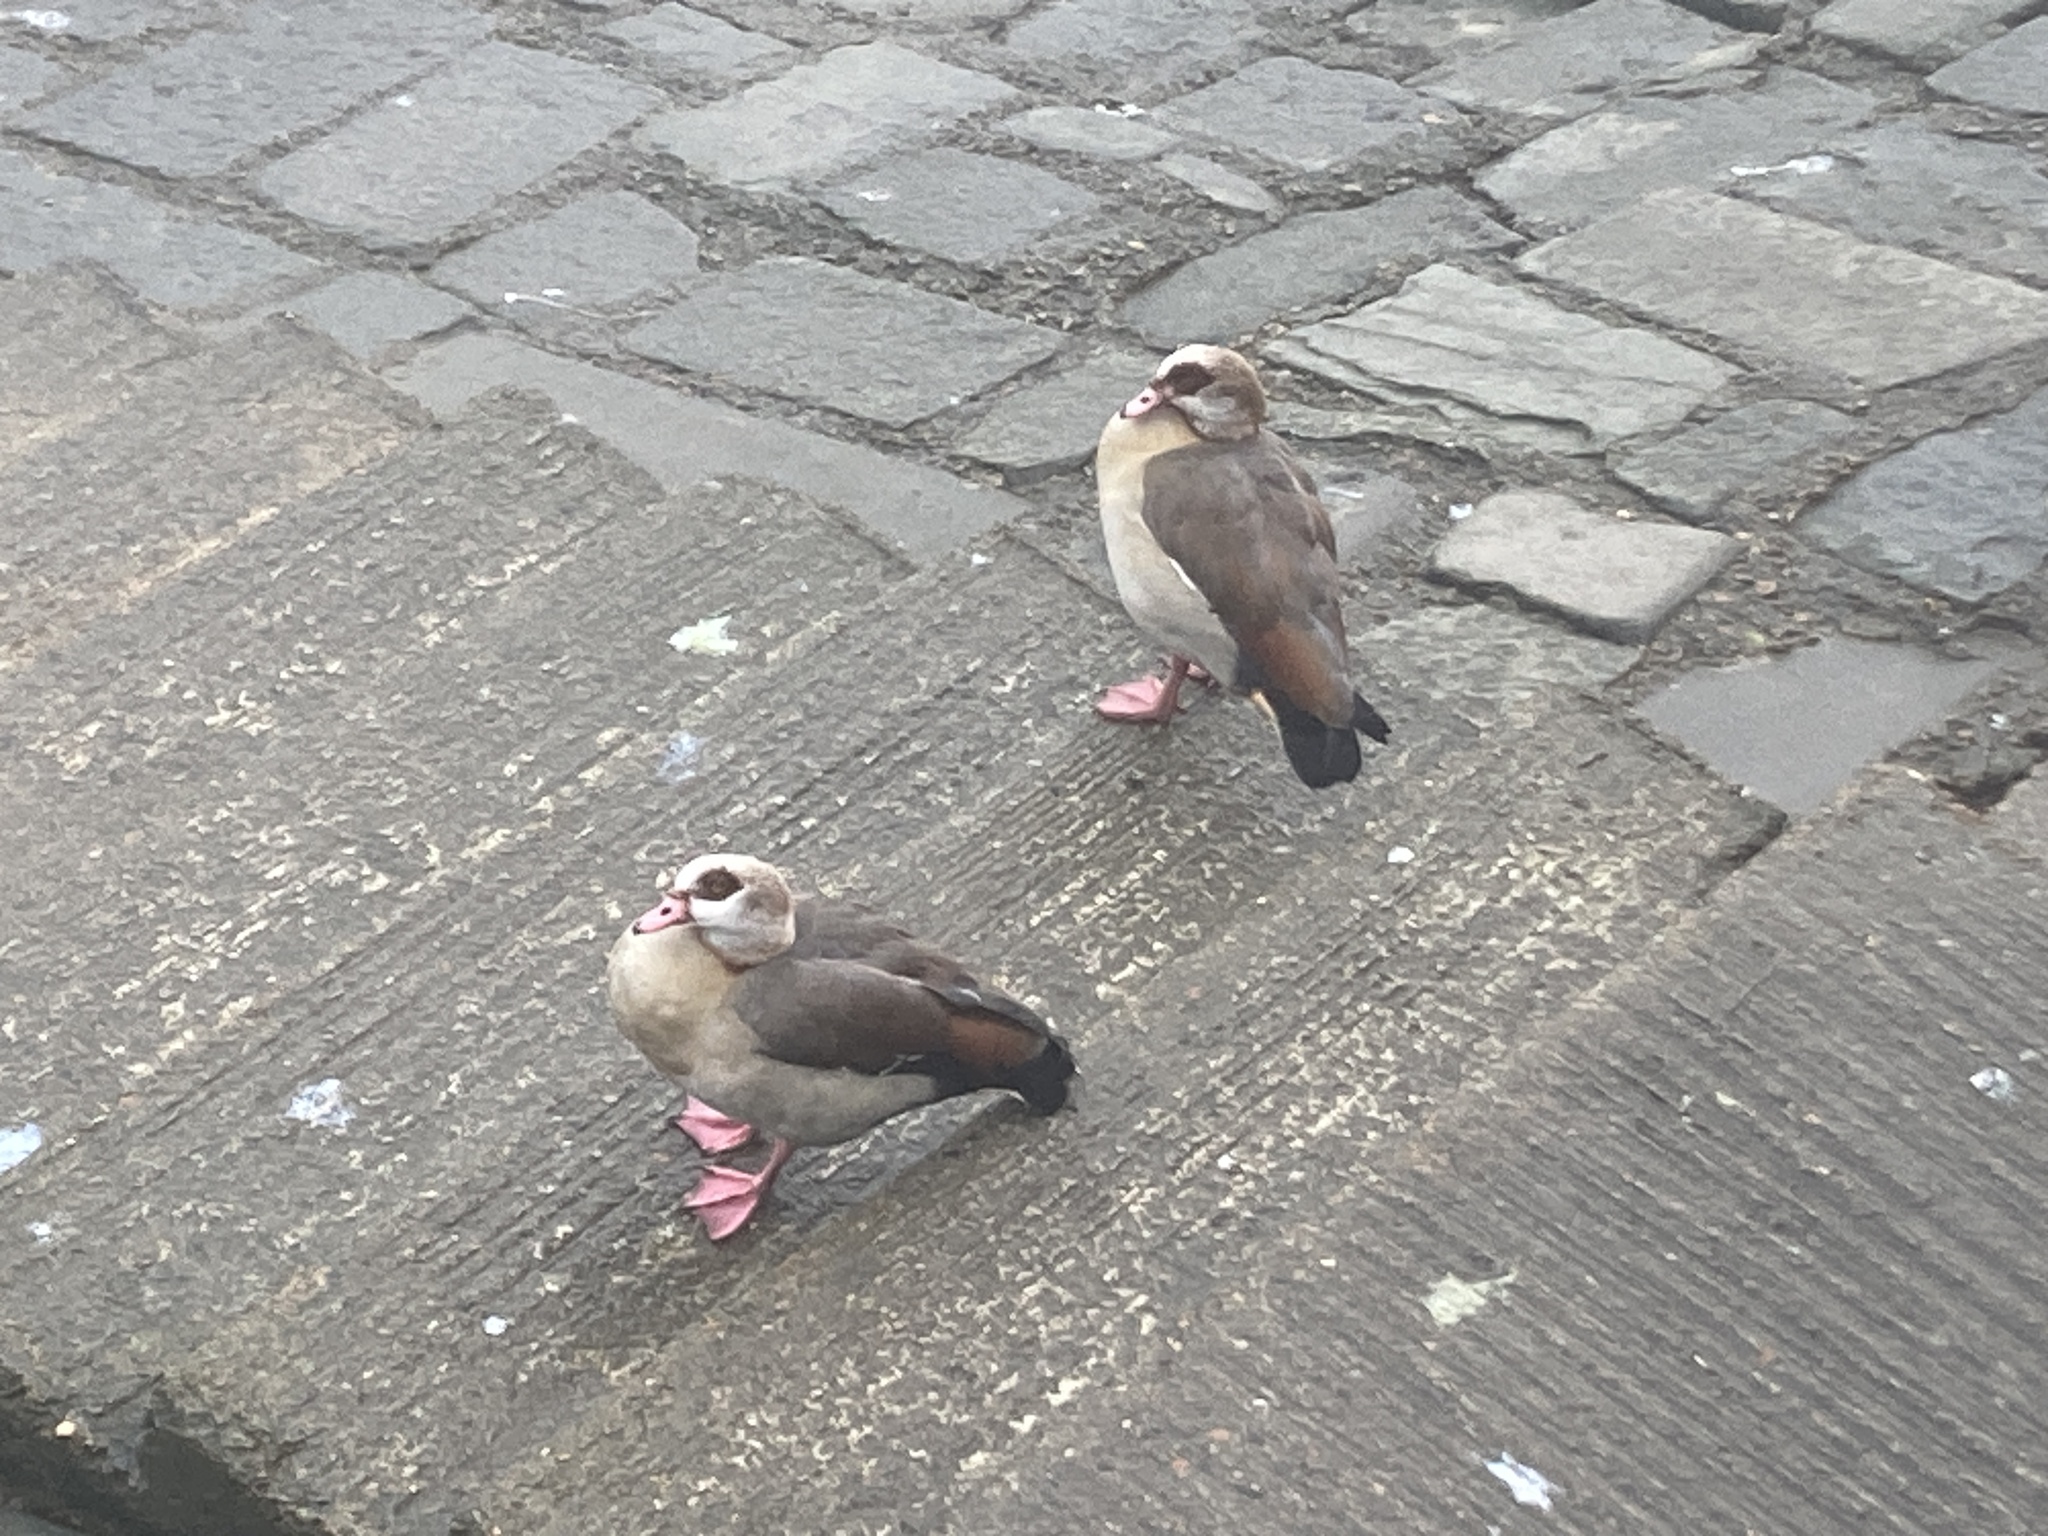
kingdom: Animalia
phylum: Chordata
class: Aves
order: Anseriformes
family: Anatidae
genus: Alopochen
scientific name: Alopochen aegyptiaca
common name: Egyptian goose
